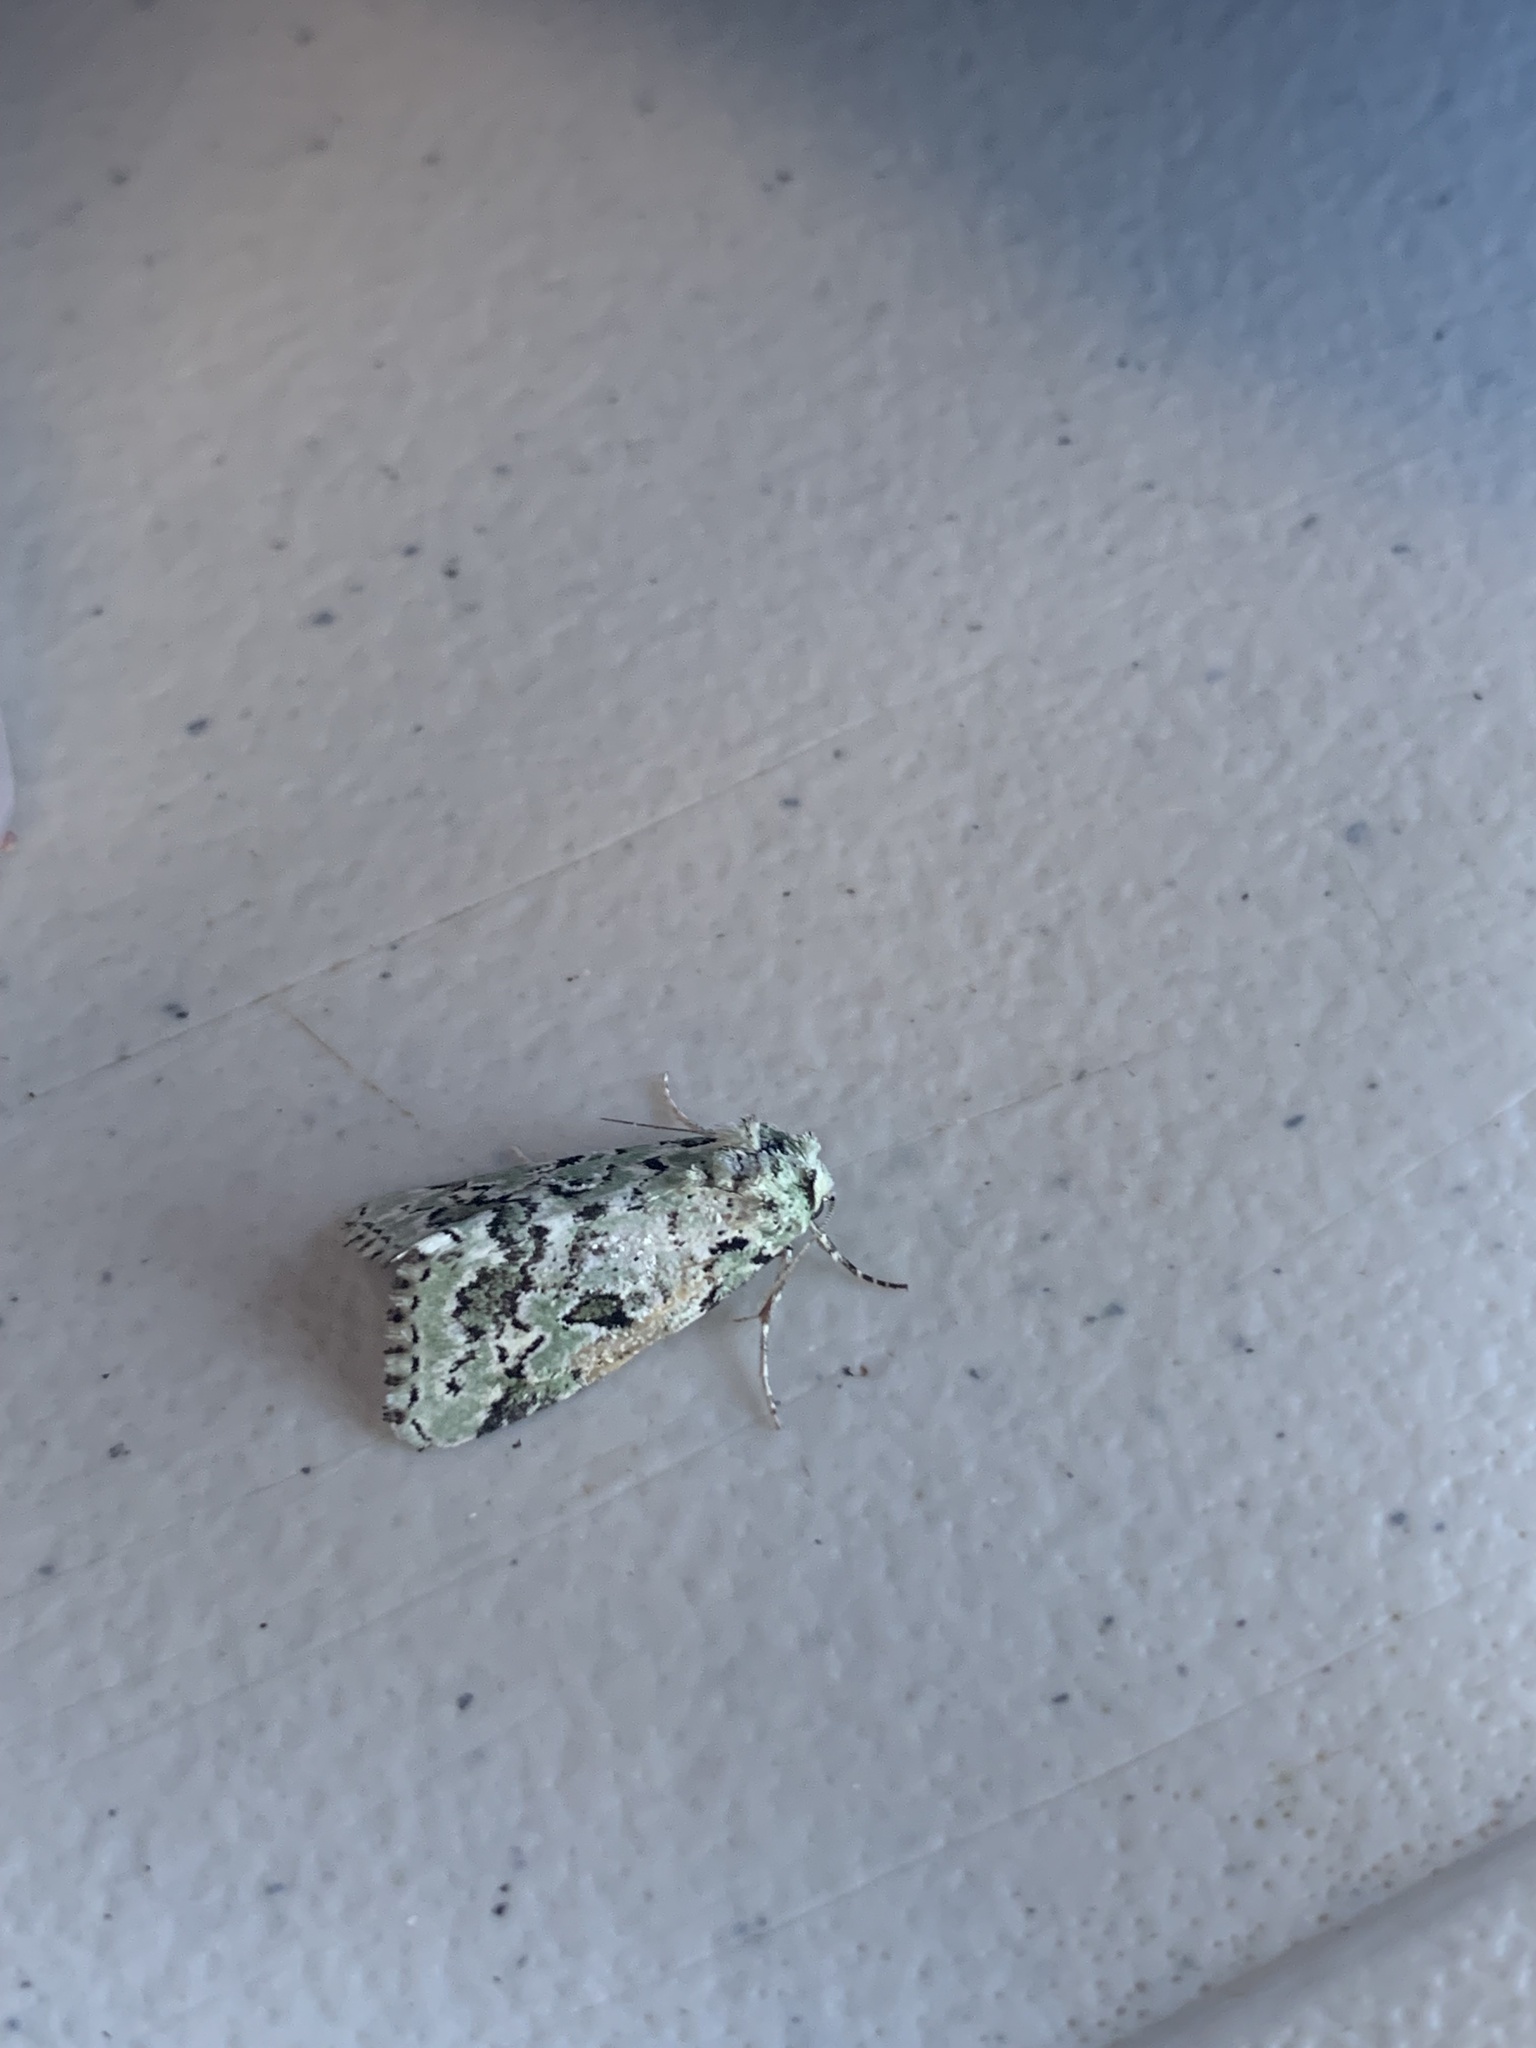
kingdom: Animalia
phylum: Arthropoda
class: Insecta
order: Lepidoptera
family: Noctuidae
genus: Bryolymnia
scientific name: Bryolymnia viridata
